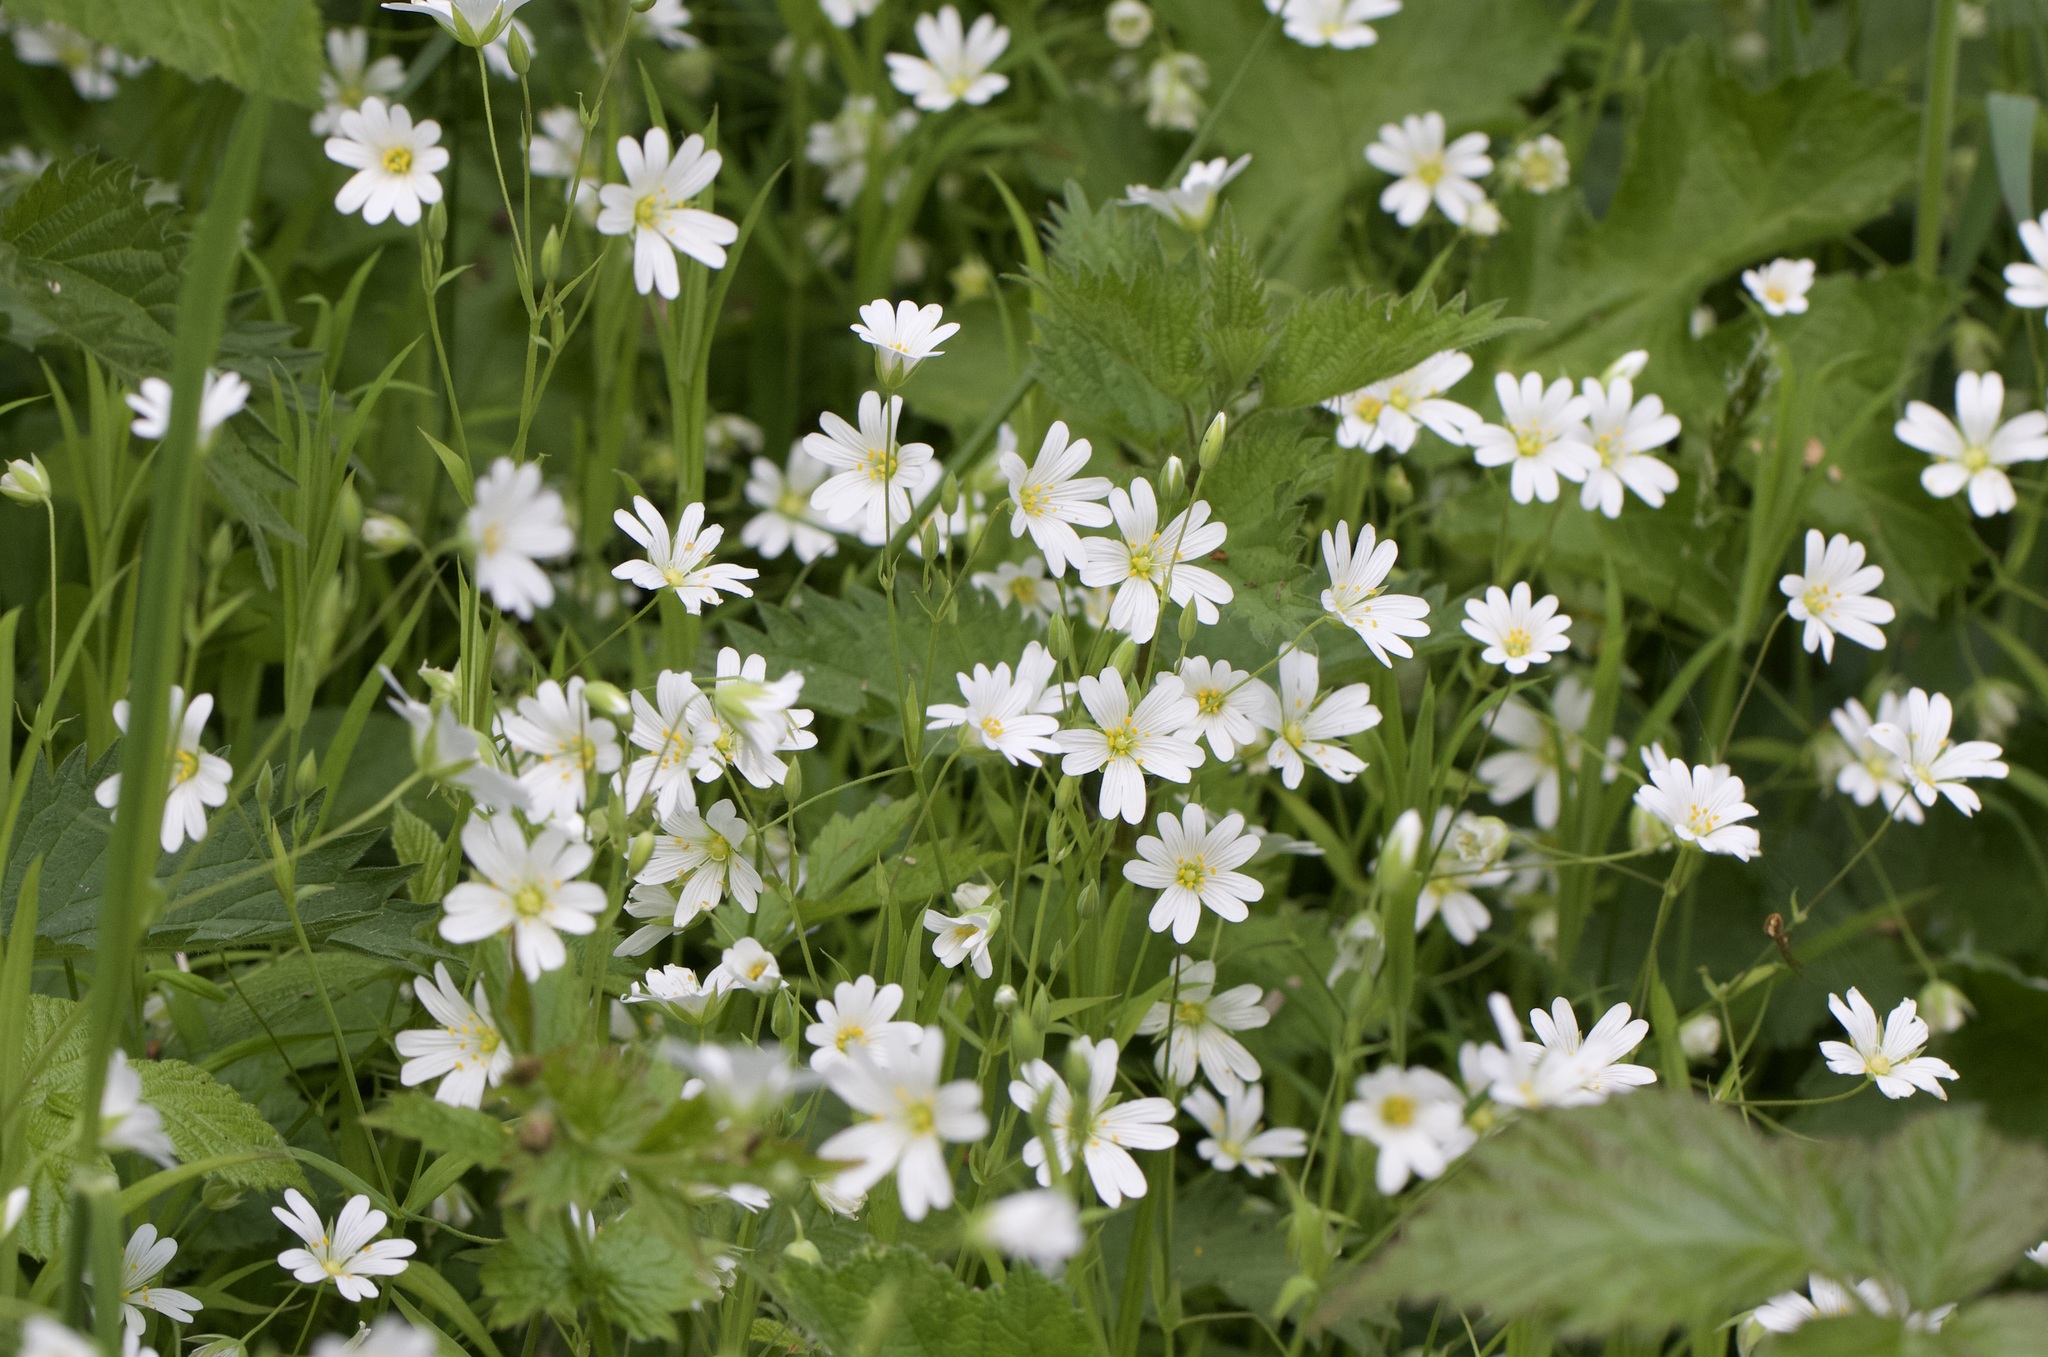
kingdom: Plantae
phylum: Tracheophyta
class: Magnoliopsida
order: Caryophyllales
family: Caryophyllaceae
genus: Rabelera
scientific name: Rabelera holostea
